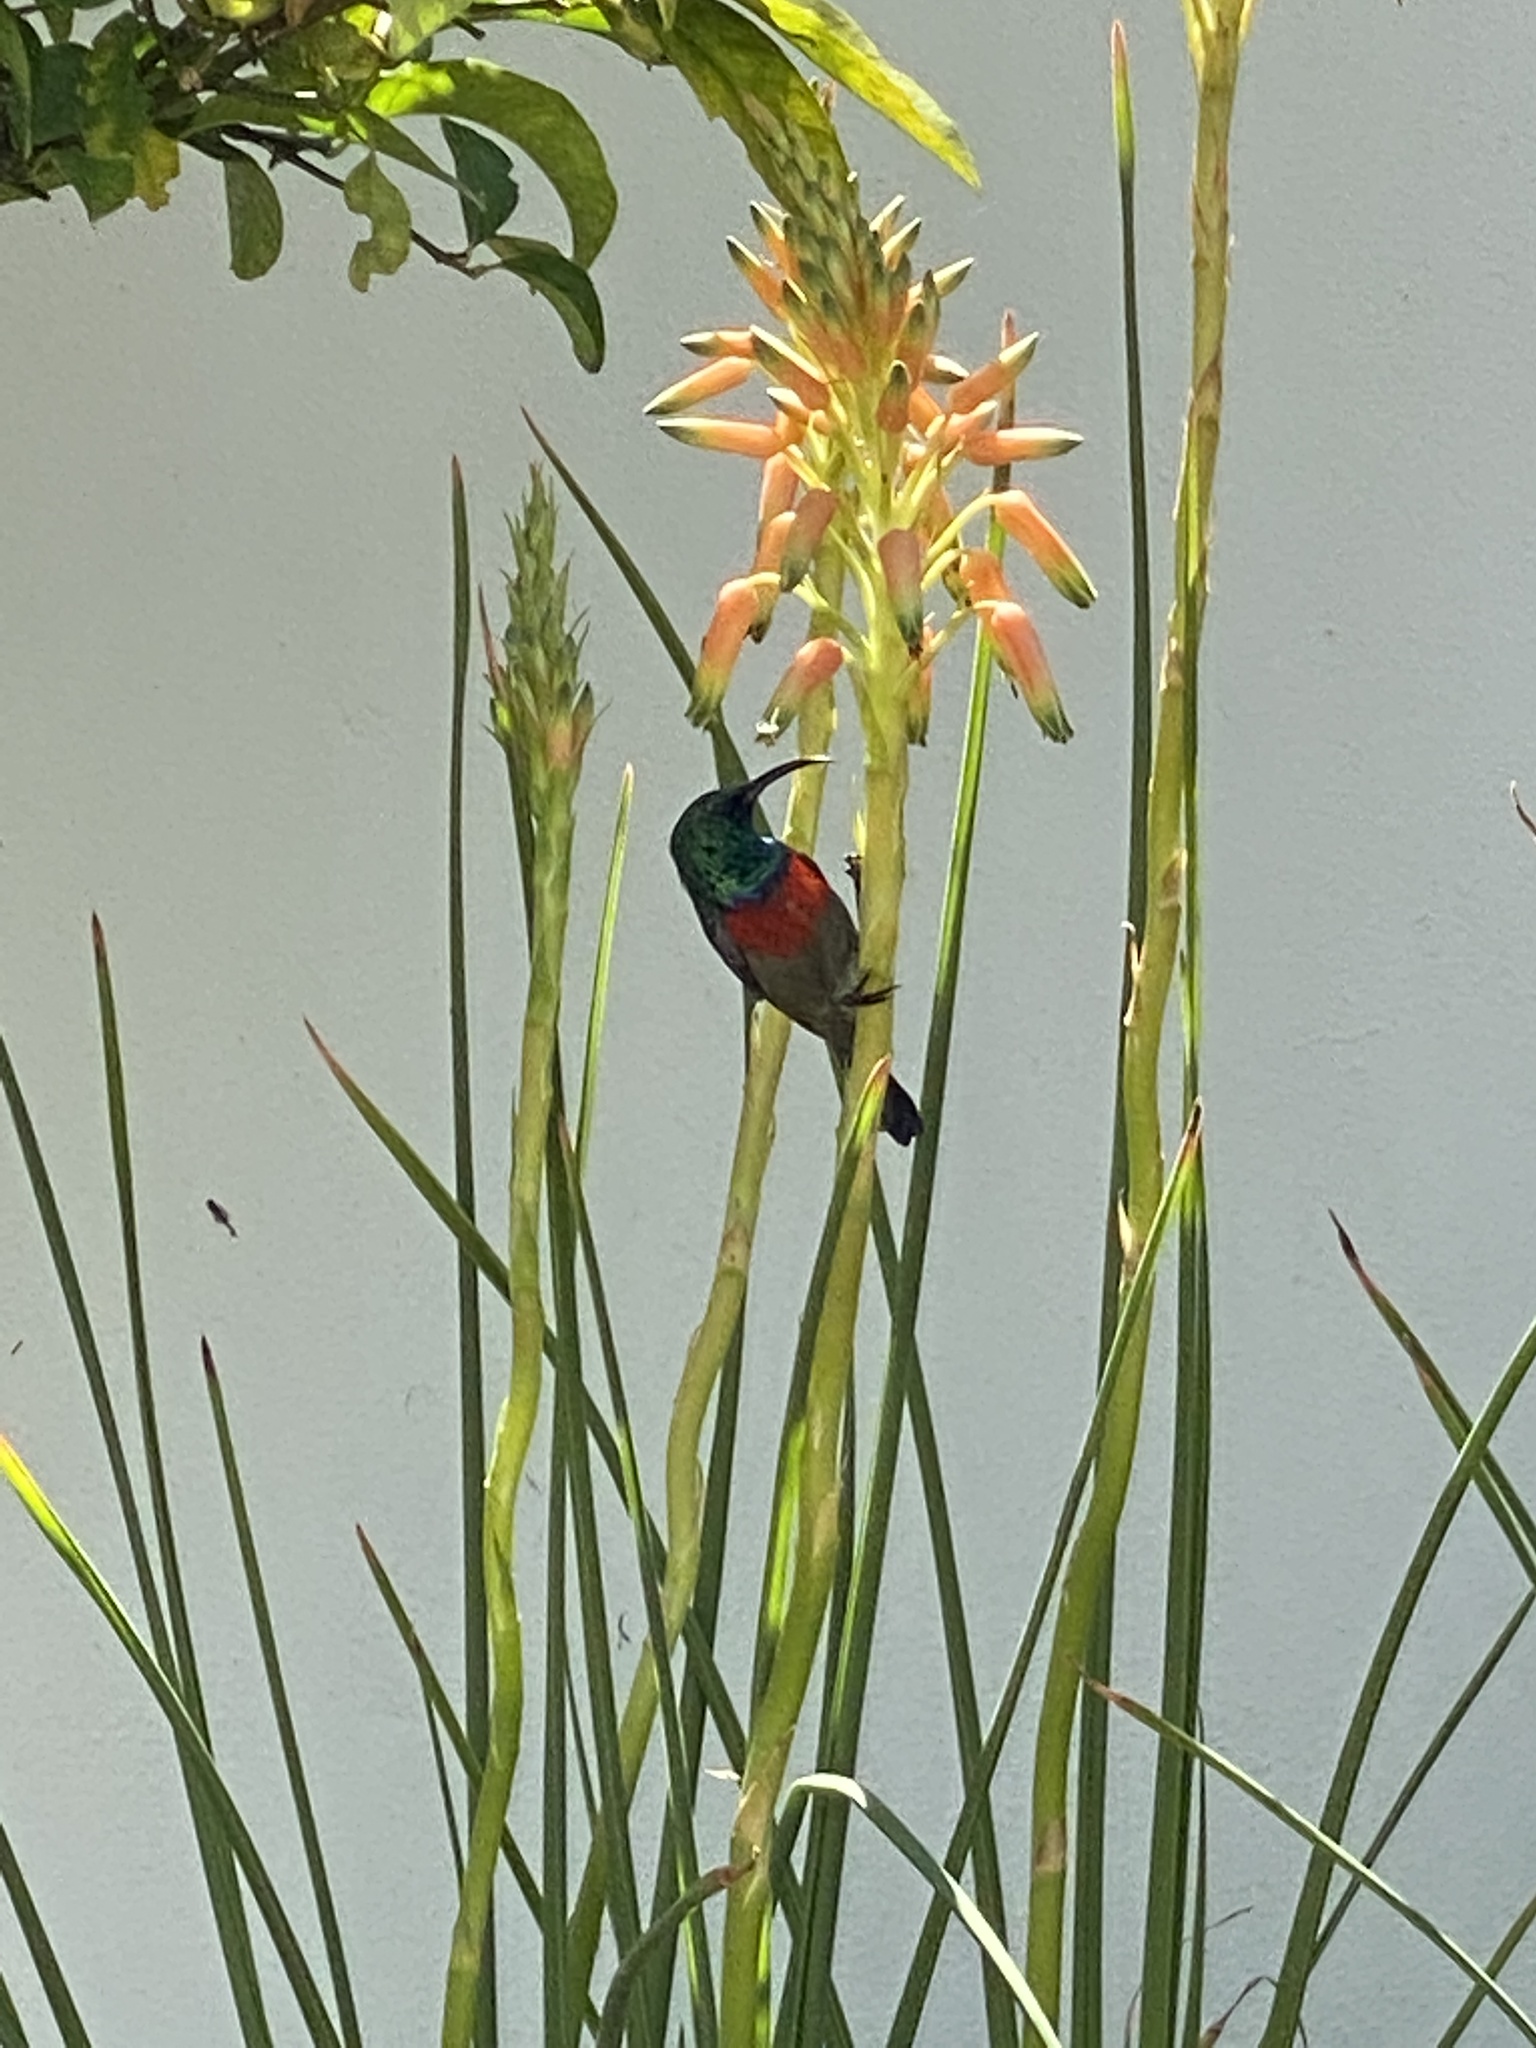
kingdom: Animalia
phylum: Chordata
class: Aves
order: Passeriformes
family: Nectariniidae
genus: Cinnyris
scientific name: Cinnyris afer
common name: Greater double-collared sunbird
